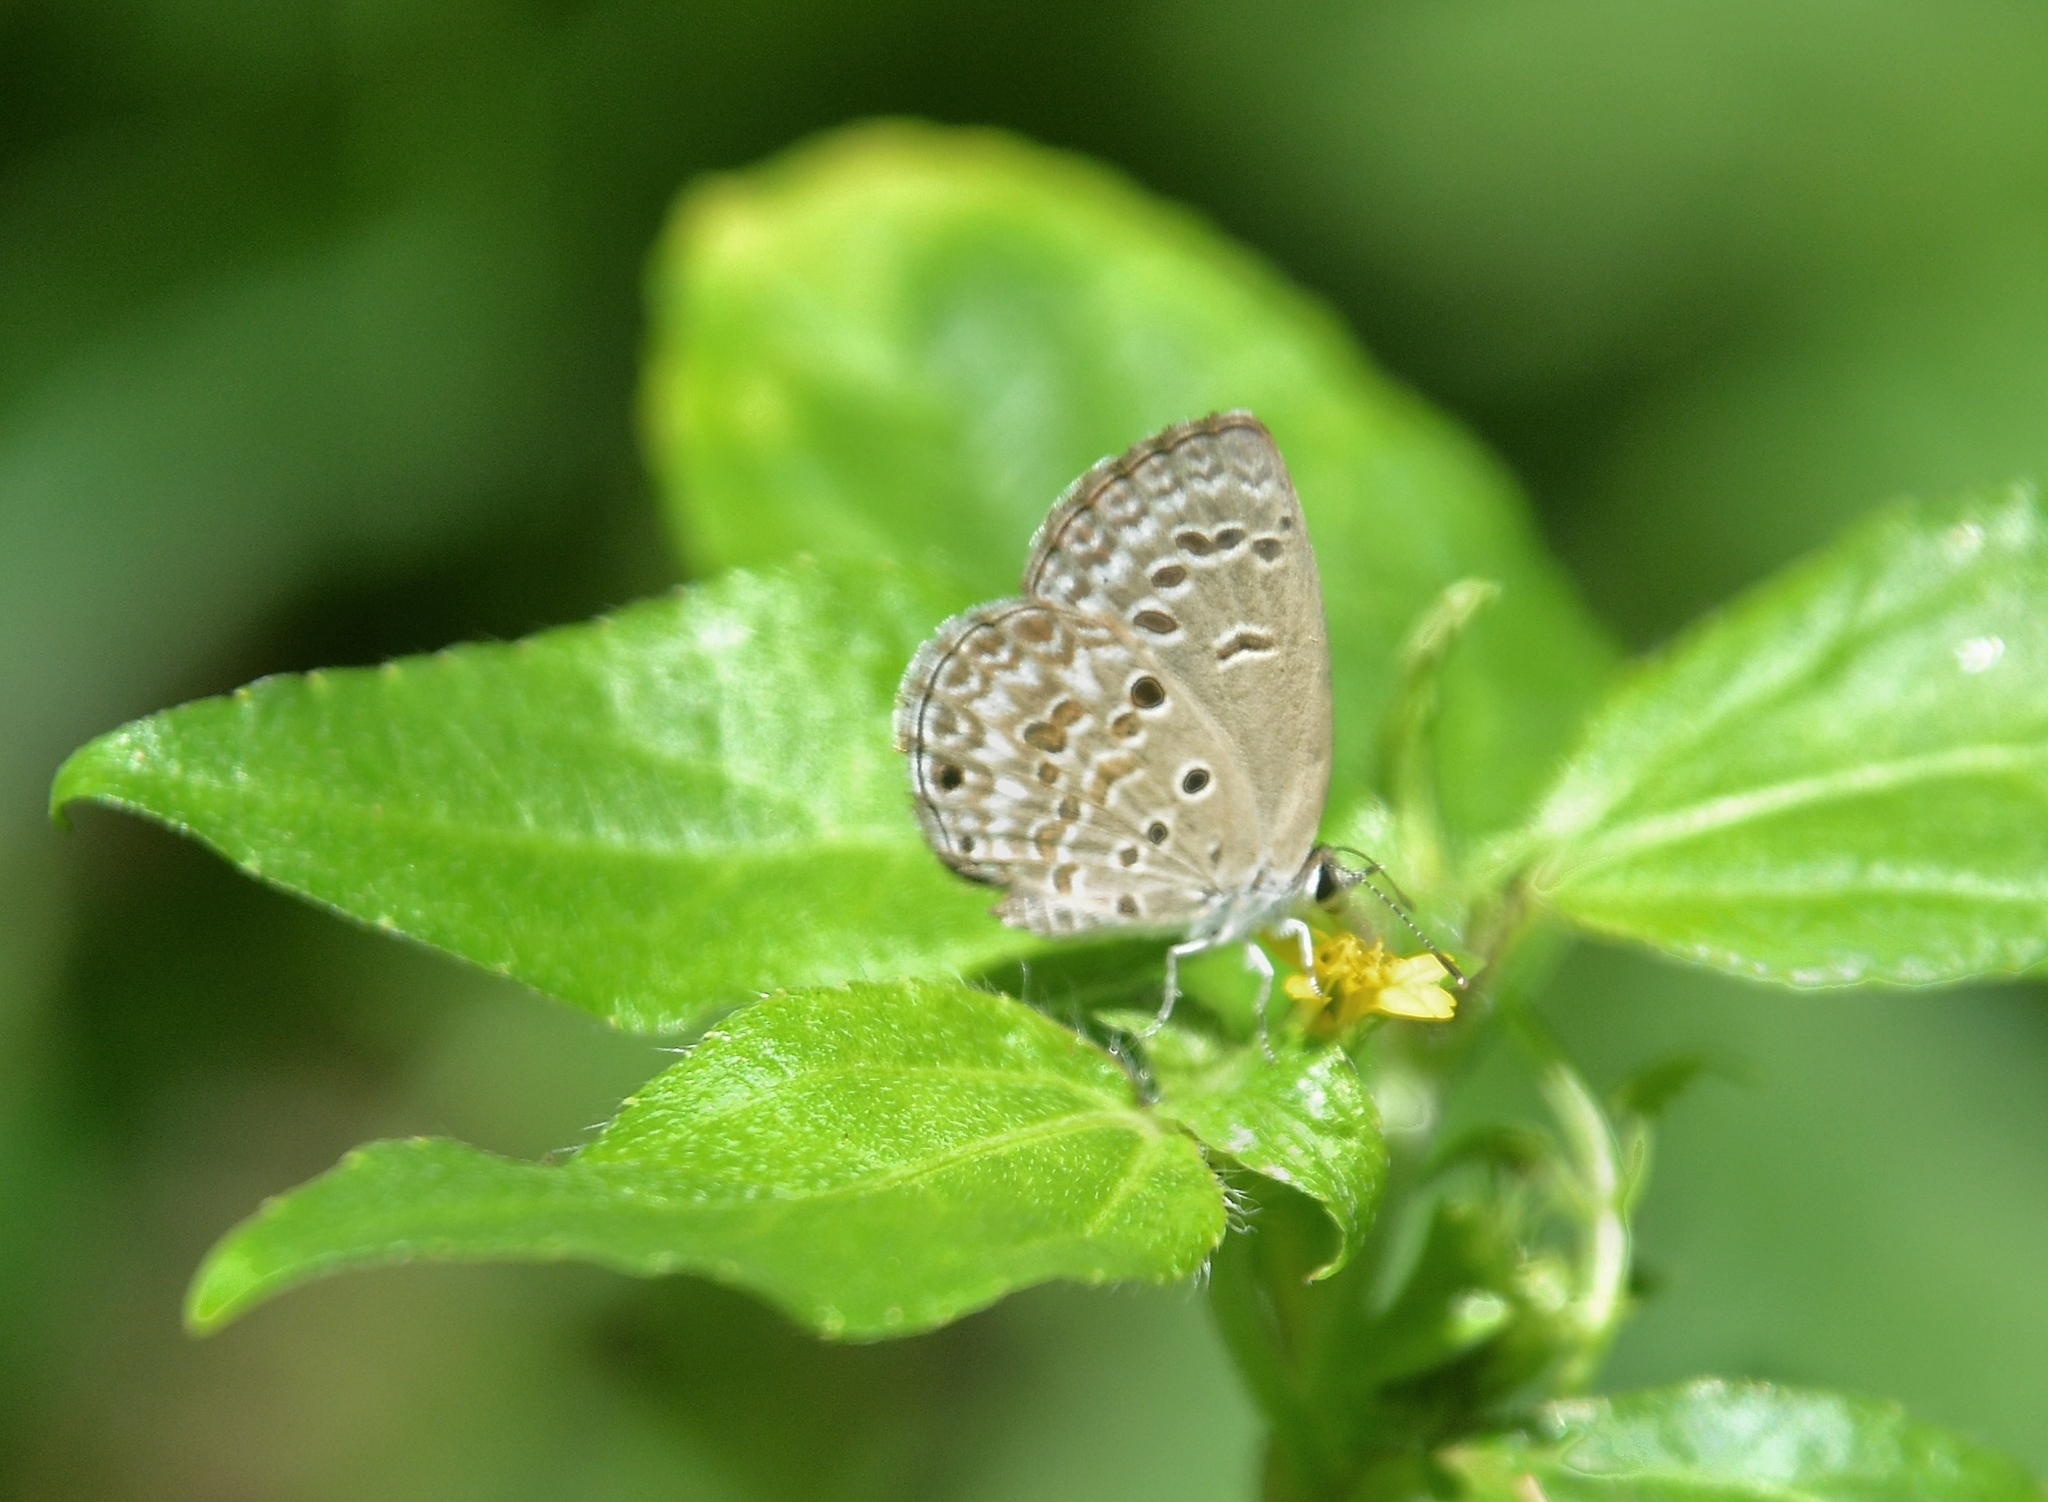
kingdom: Animalia
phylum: Arthropoda
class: Insecta
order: Lepidoptera
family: Lycaenidae
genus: Chilades
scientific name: Chilades laius
